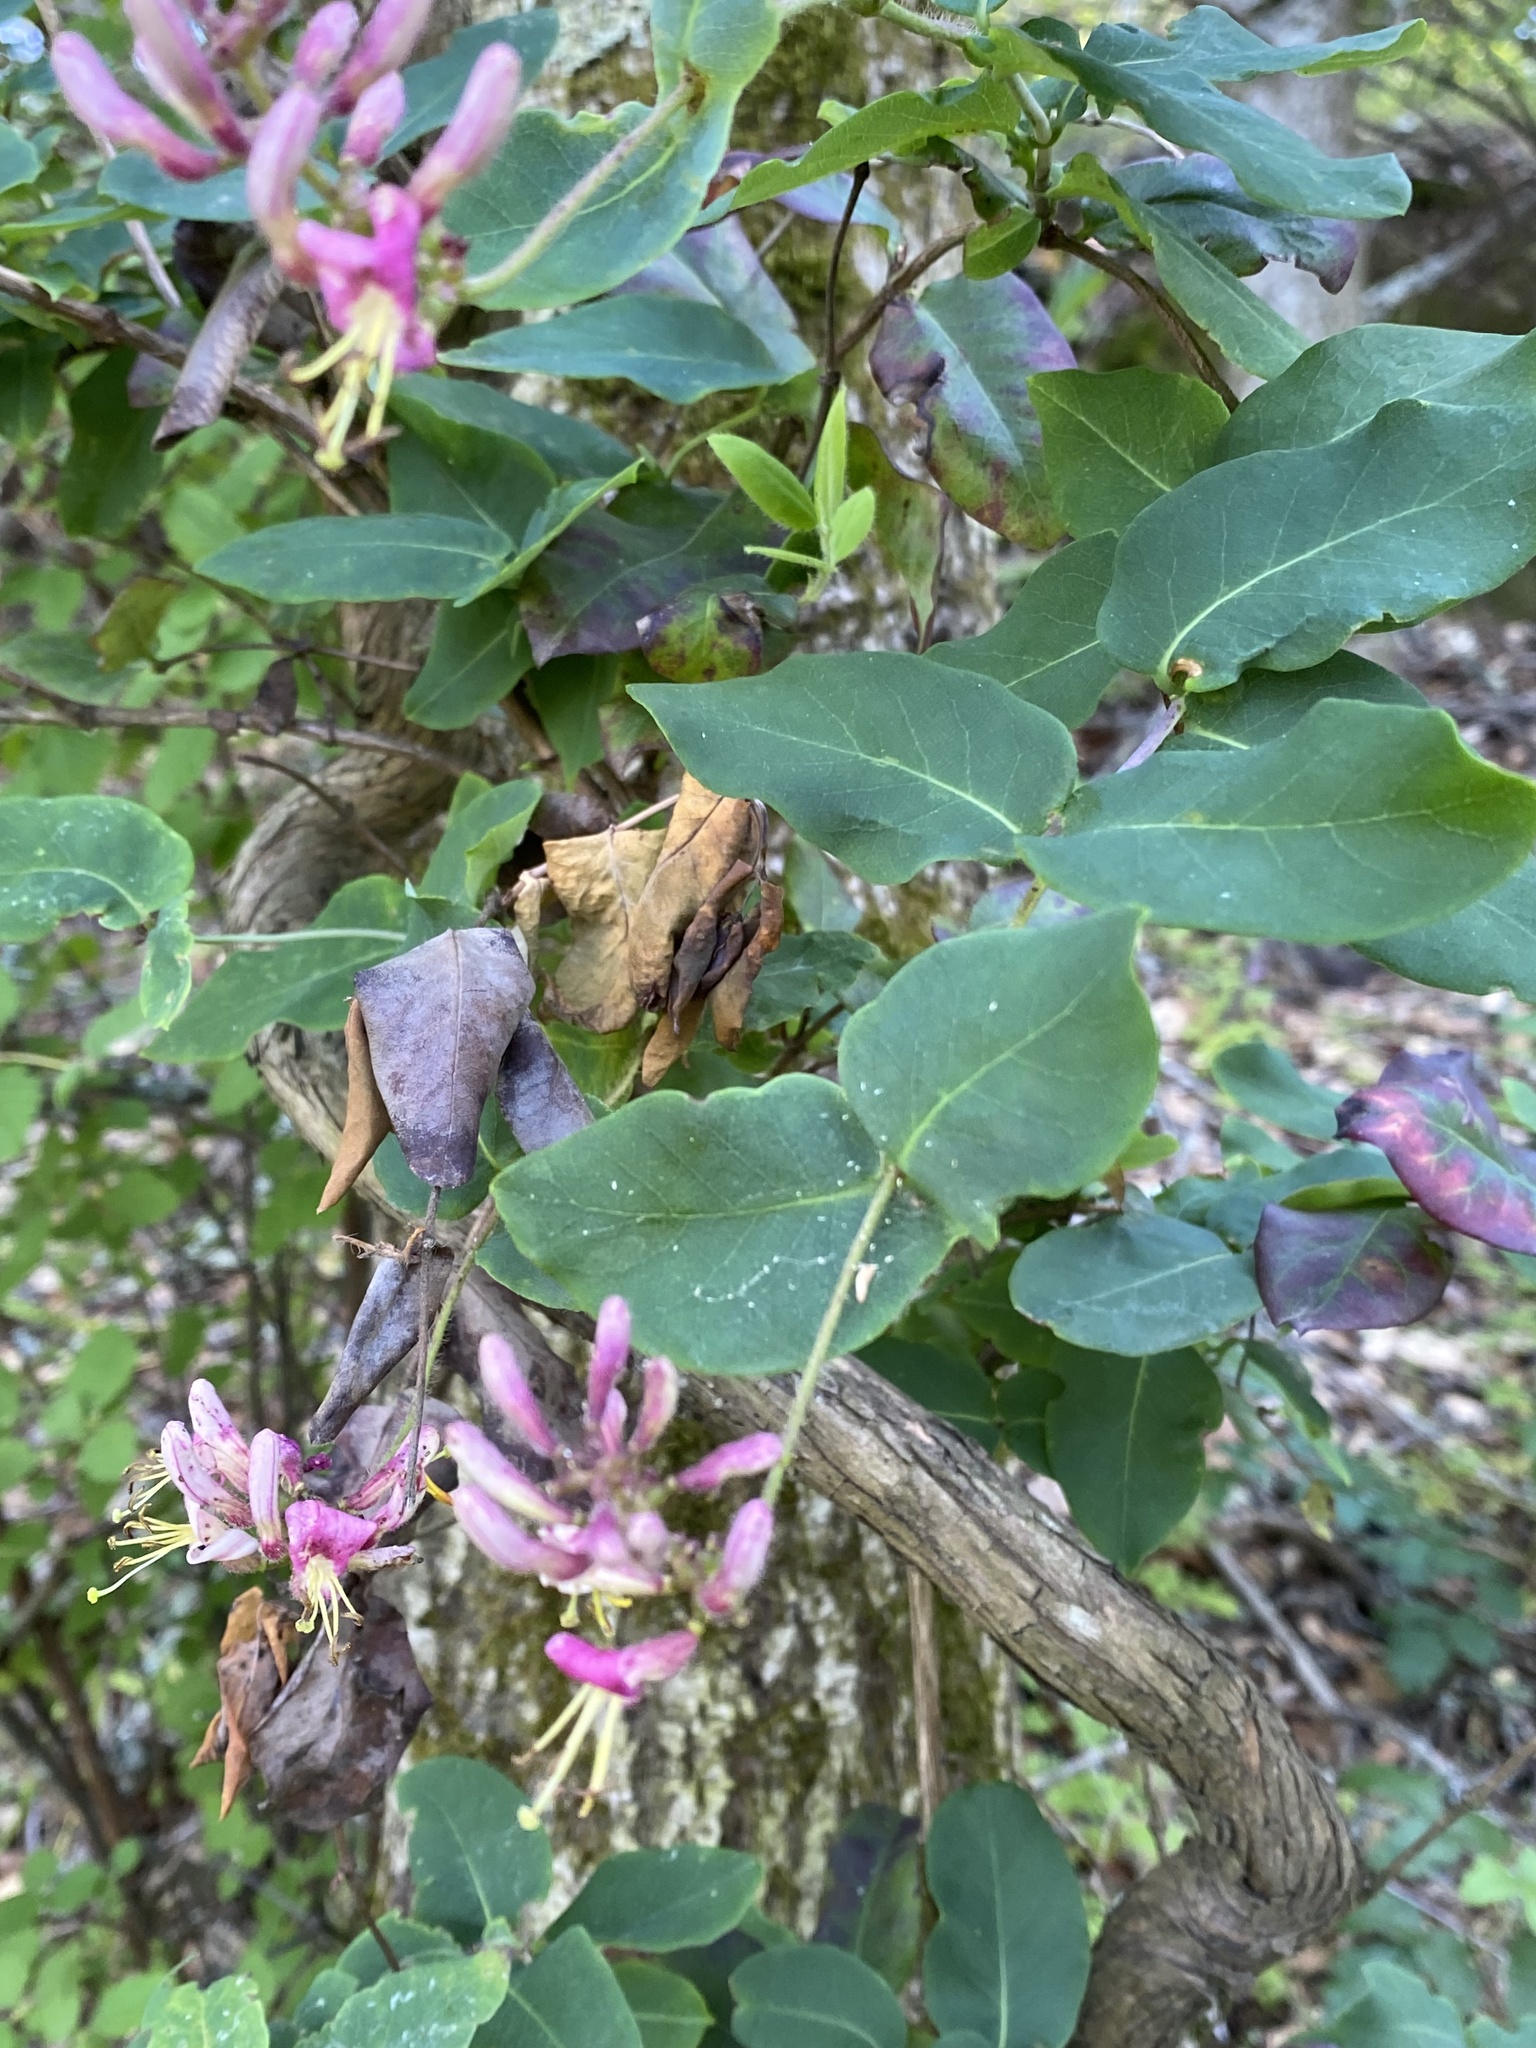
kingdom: Plantae
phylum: Tracheophyta
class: Magnoliopsida
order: Dipsacales
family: Caprifoliaceae
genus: Lonicera
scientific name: Lonicera hispidula
